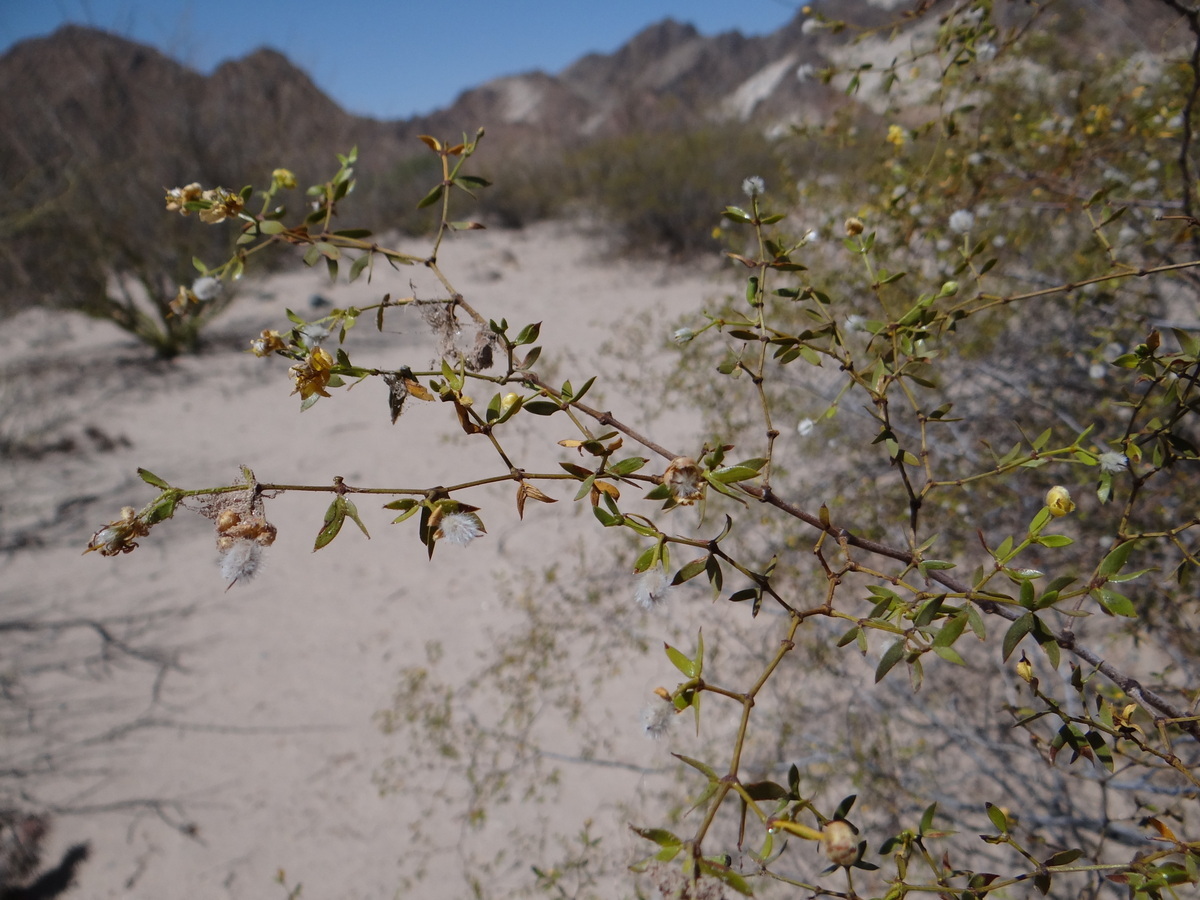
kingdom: Plantae
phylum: Tracheophyta
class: Magnoliopsida
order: Zygophyllales
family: Zygophyllaceae
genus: Larrea
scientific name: Larrea divaricata
